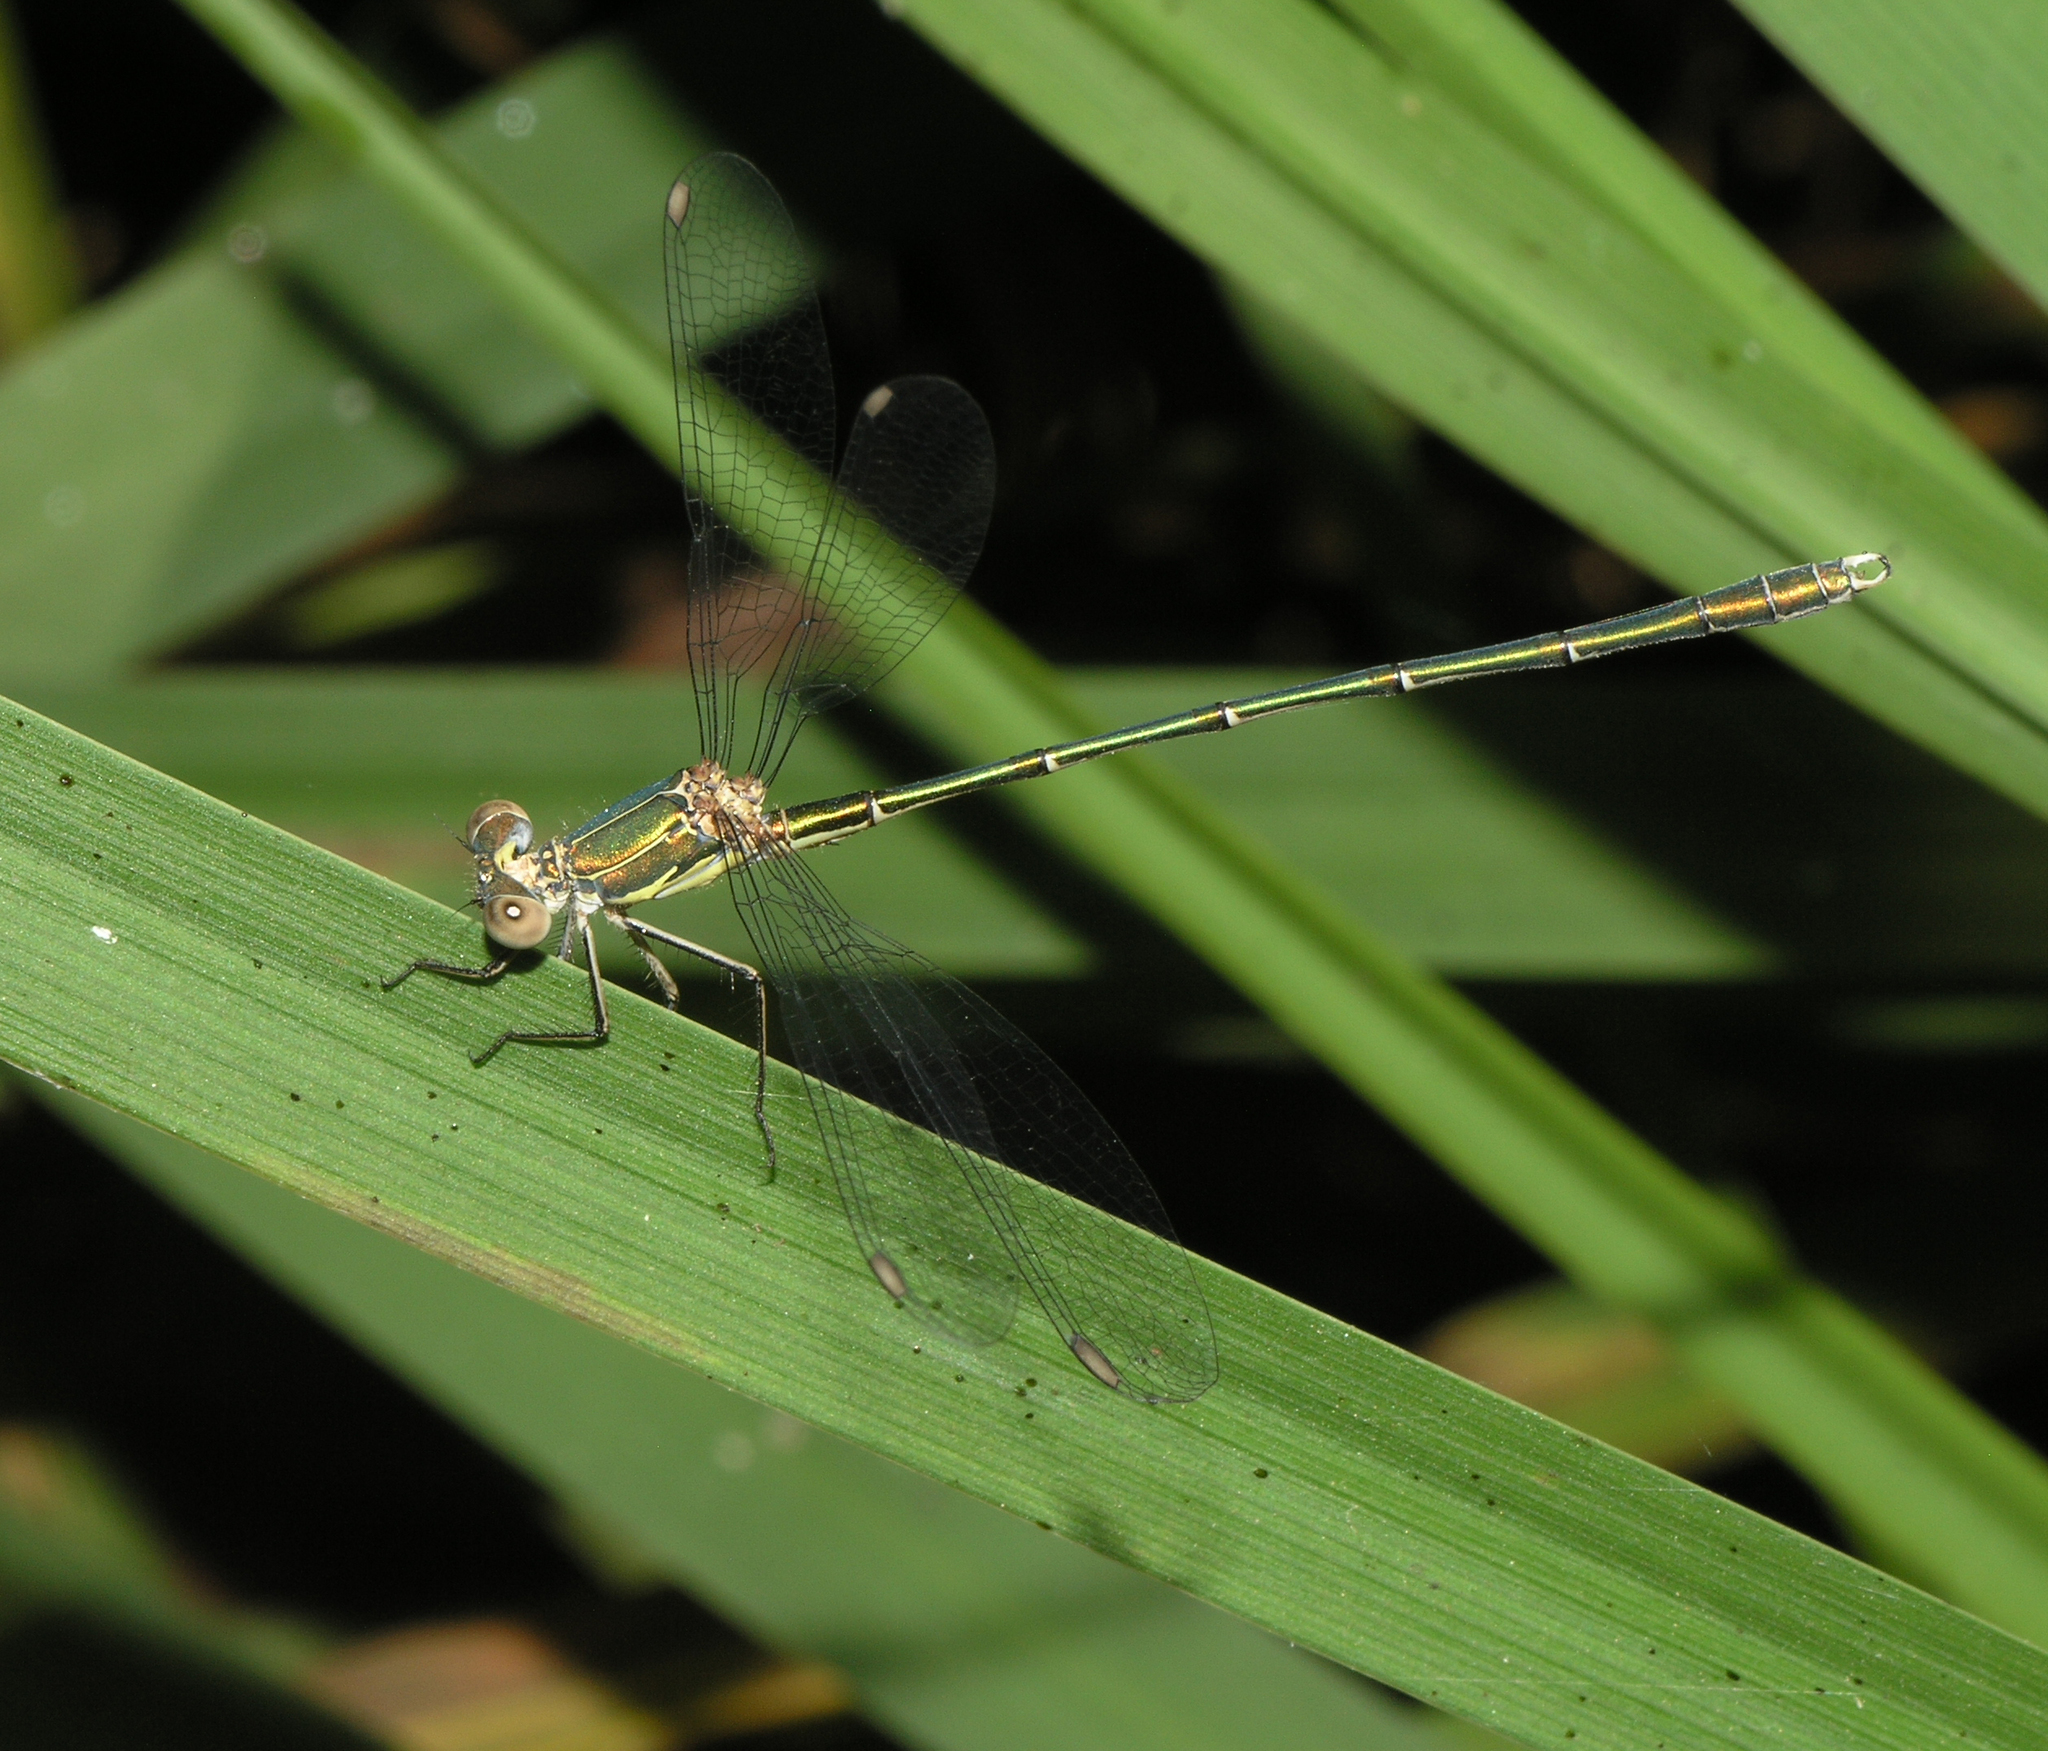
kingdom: Animalia
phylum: Arthropoda
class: Insecta
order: Odonata
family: Lestidae
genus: Chalcolestes
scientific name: Chalcolestes viridis
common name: Green emerald damselfly
